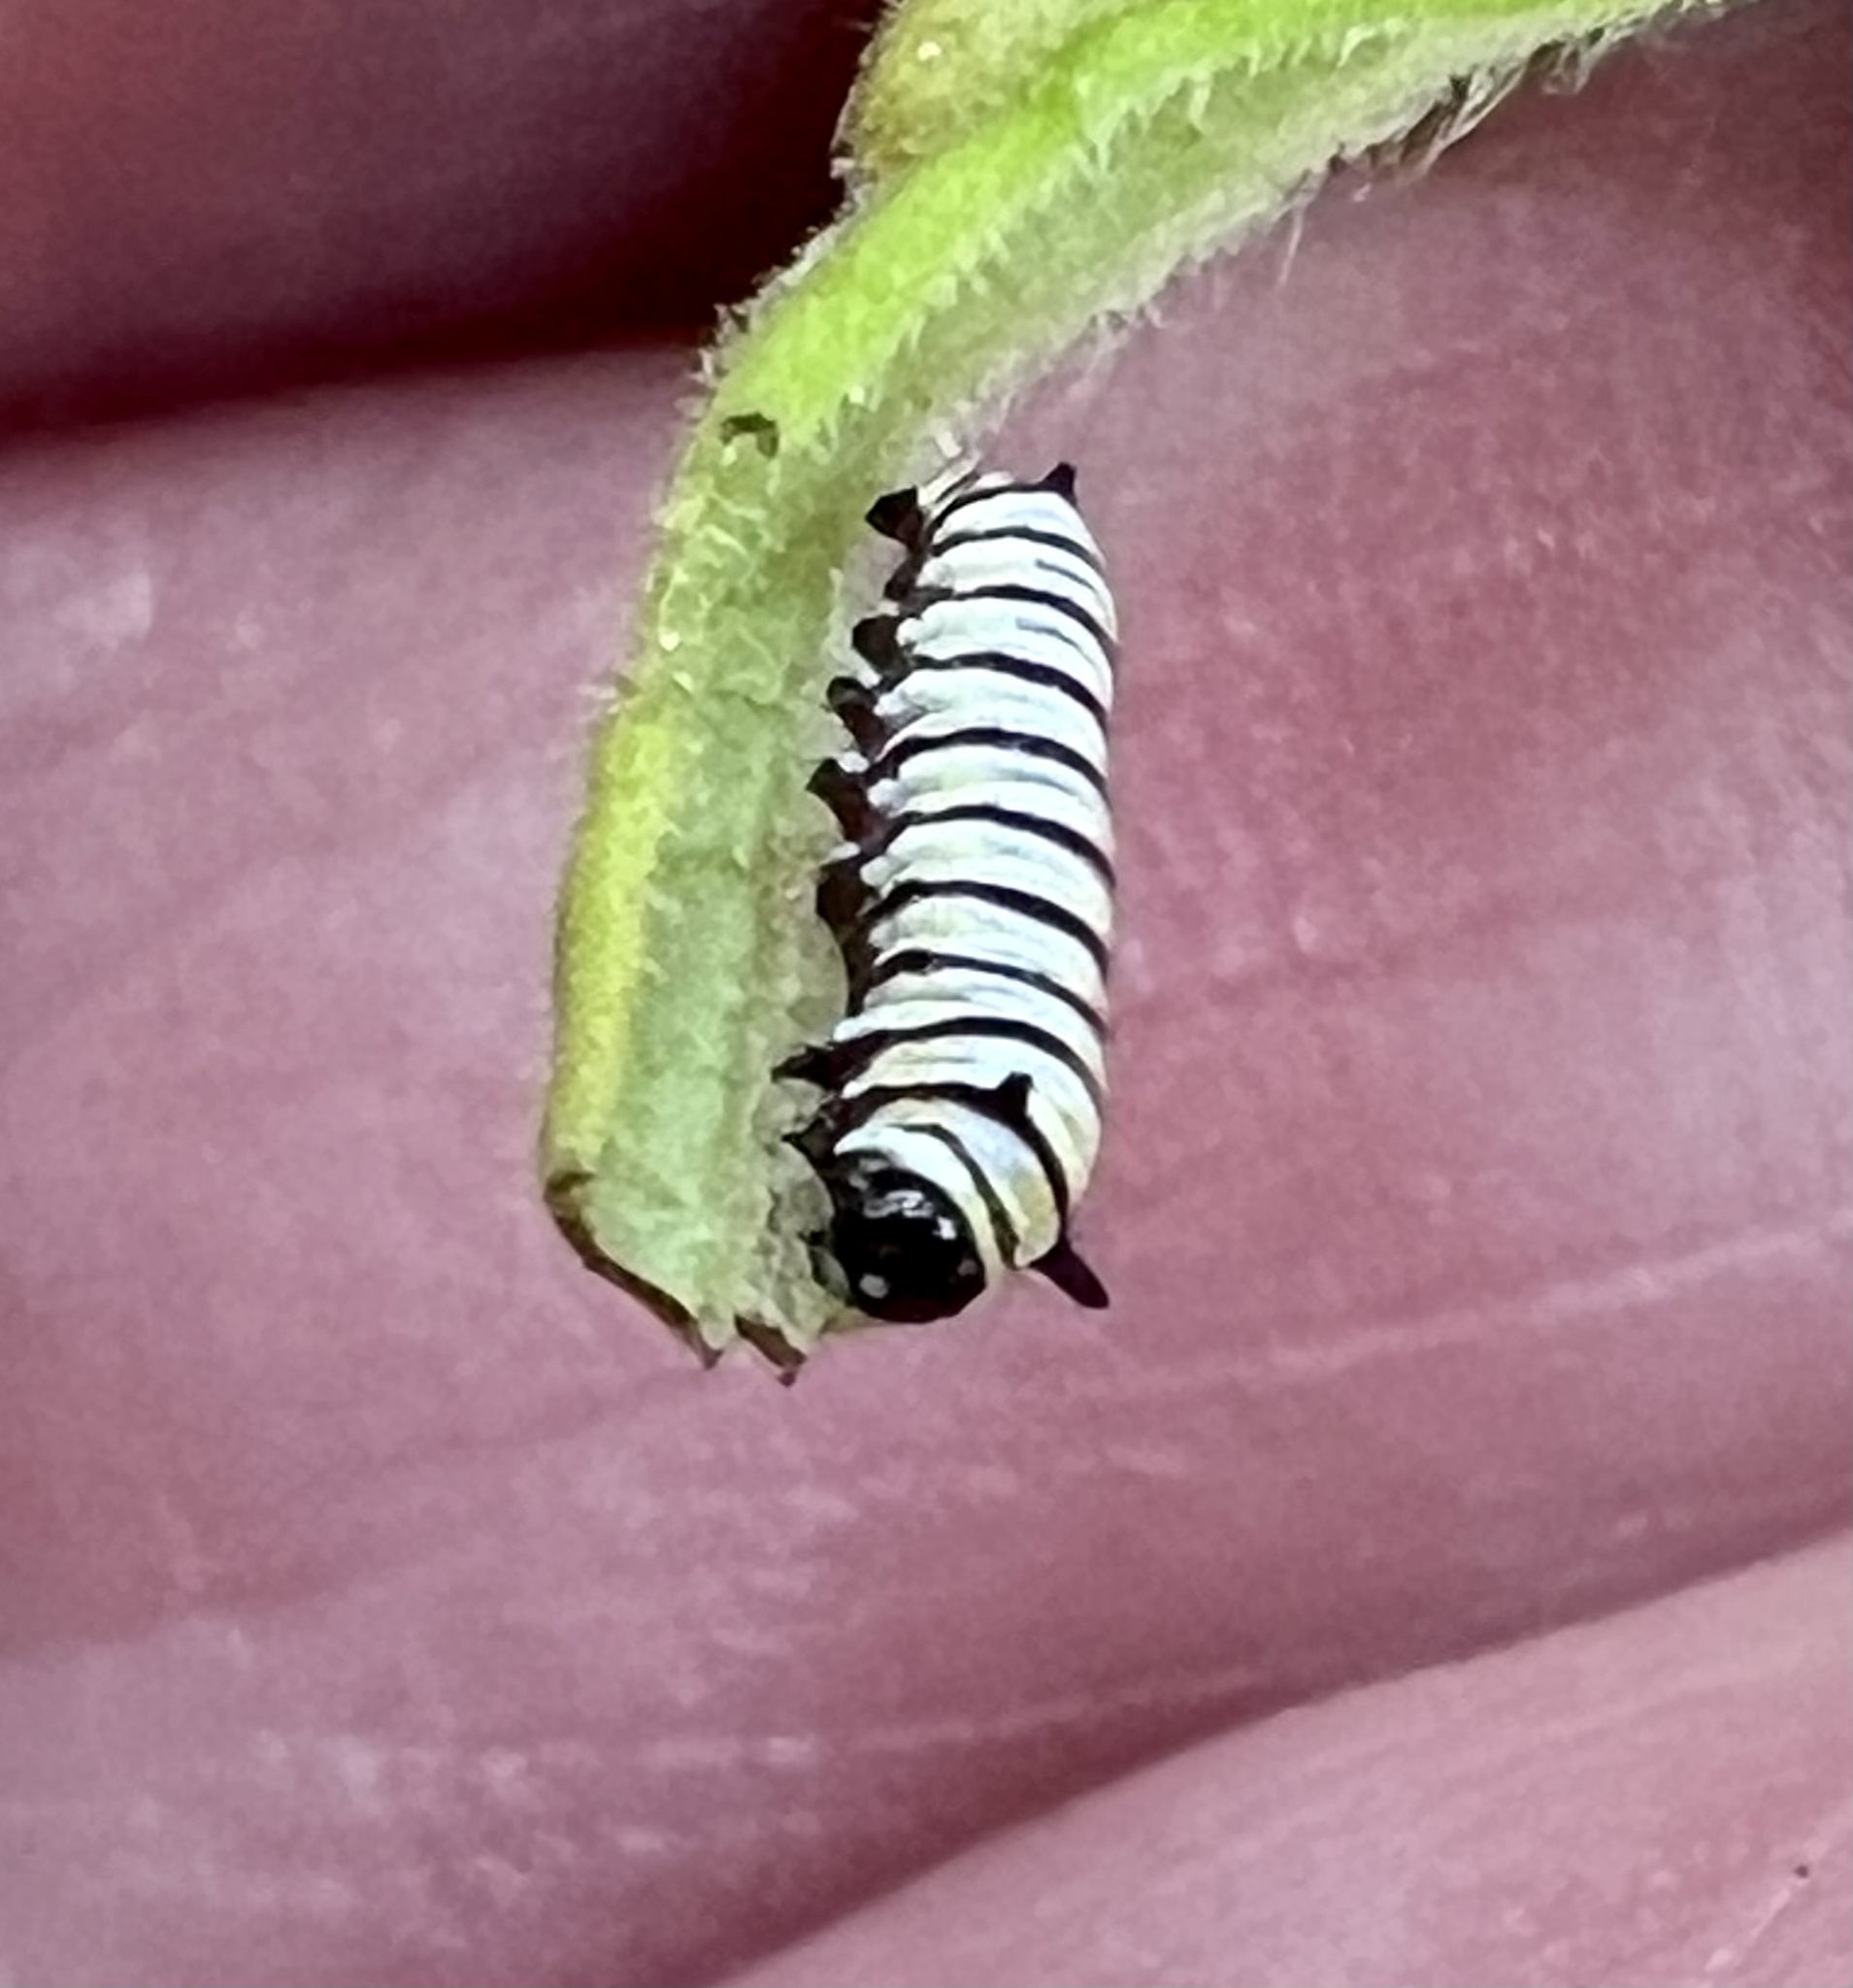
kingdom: Animalia
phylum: Arthropoda
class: Insecta
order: Lepidoptera
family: Nymphalidae
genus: Danaus
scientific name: Danaus plexippus
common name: Monarch
